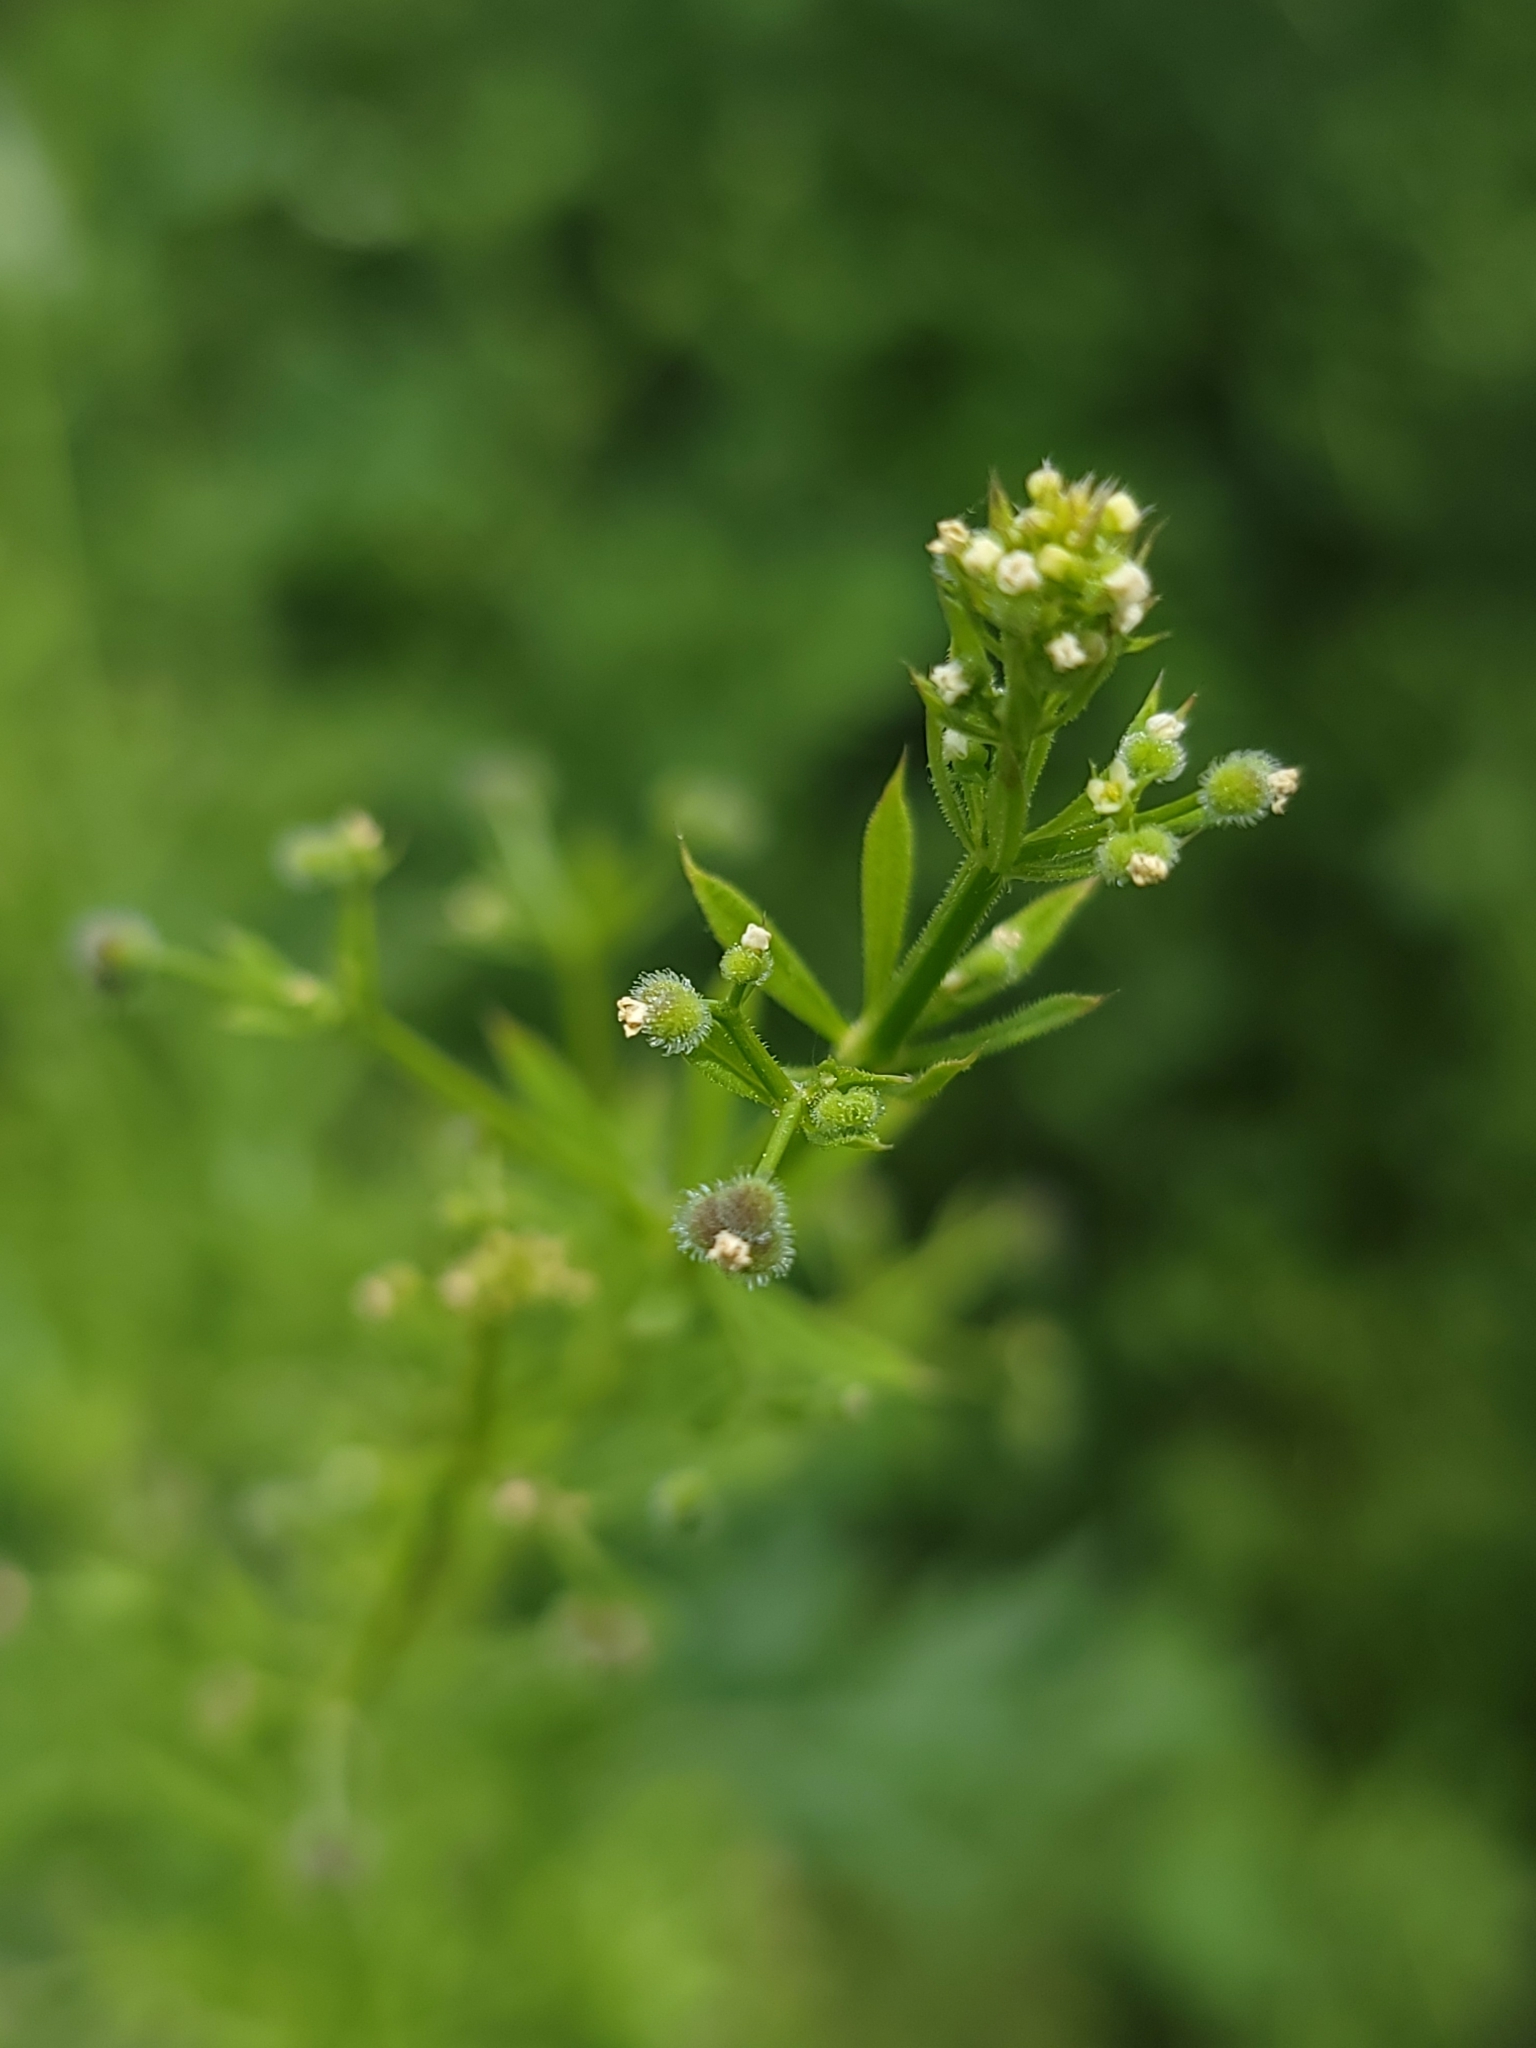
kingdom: Plantae
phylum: Tracheophyta
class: Magnoliopsida
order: Gentianales
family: Rubiaceae
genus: Galium
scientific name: Galium aparine
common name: Cleavers
